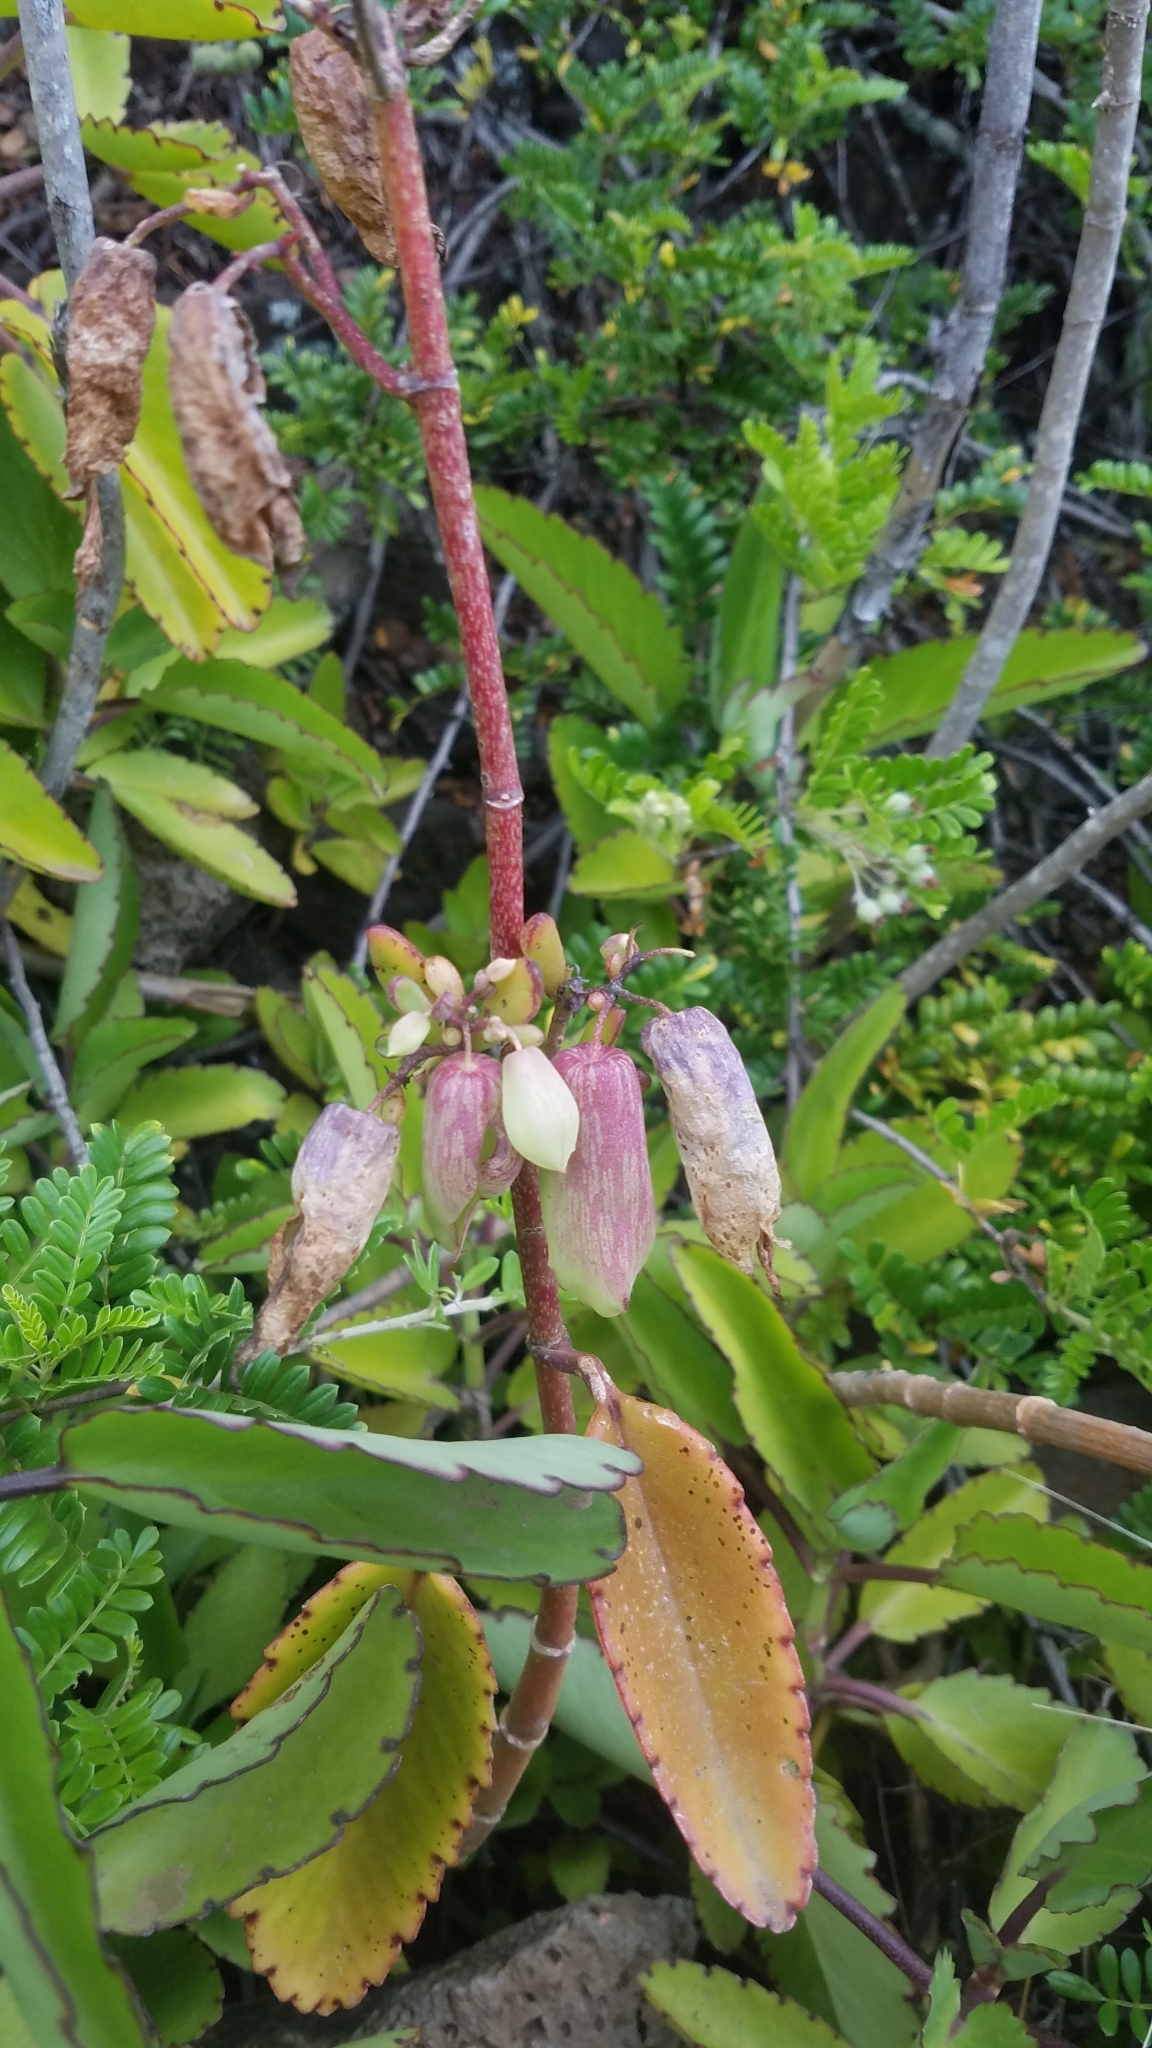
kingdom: Plantae
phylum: Tracheophyta
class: Magnoliopsida
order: Saxifragales
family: Crassulaceae
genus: Kalanchoe
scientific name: Kalanchoe pinnata
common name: Cathedral bells
